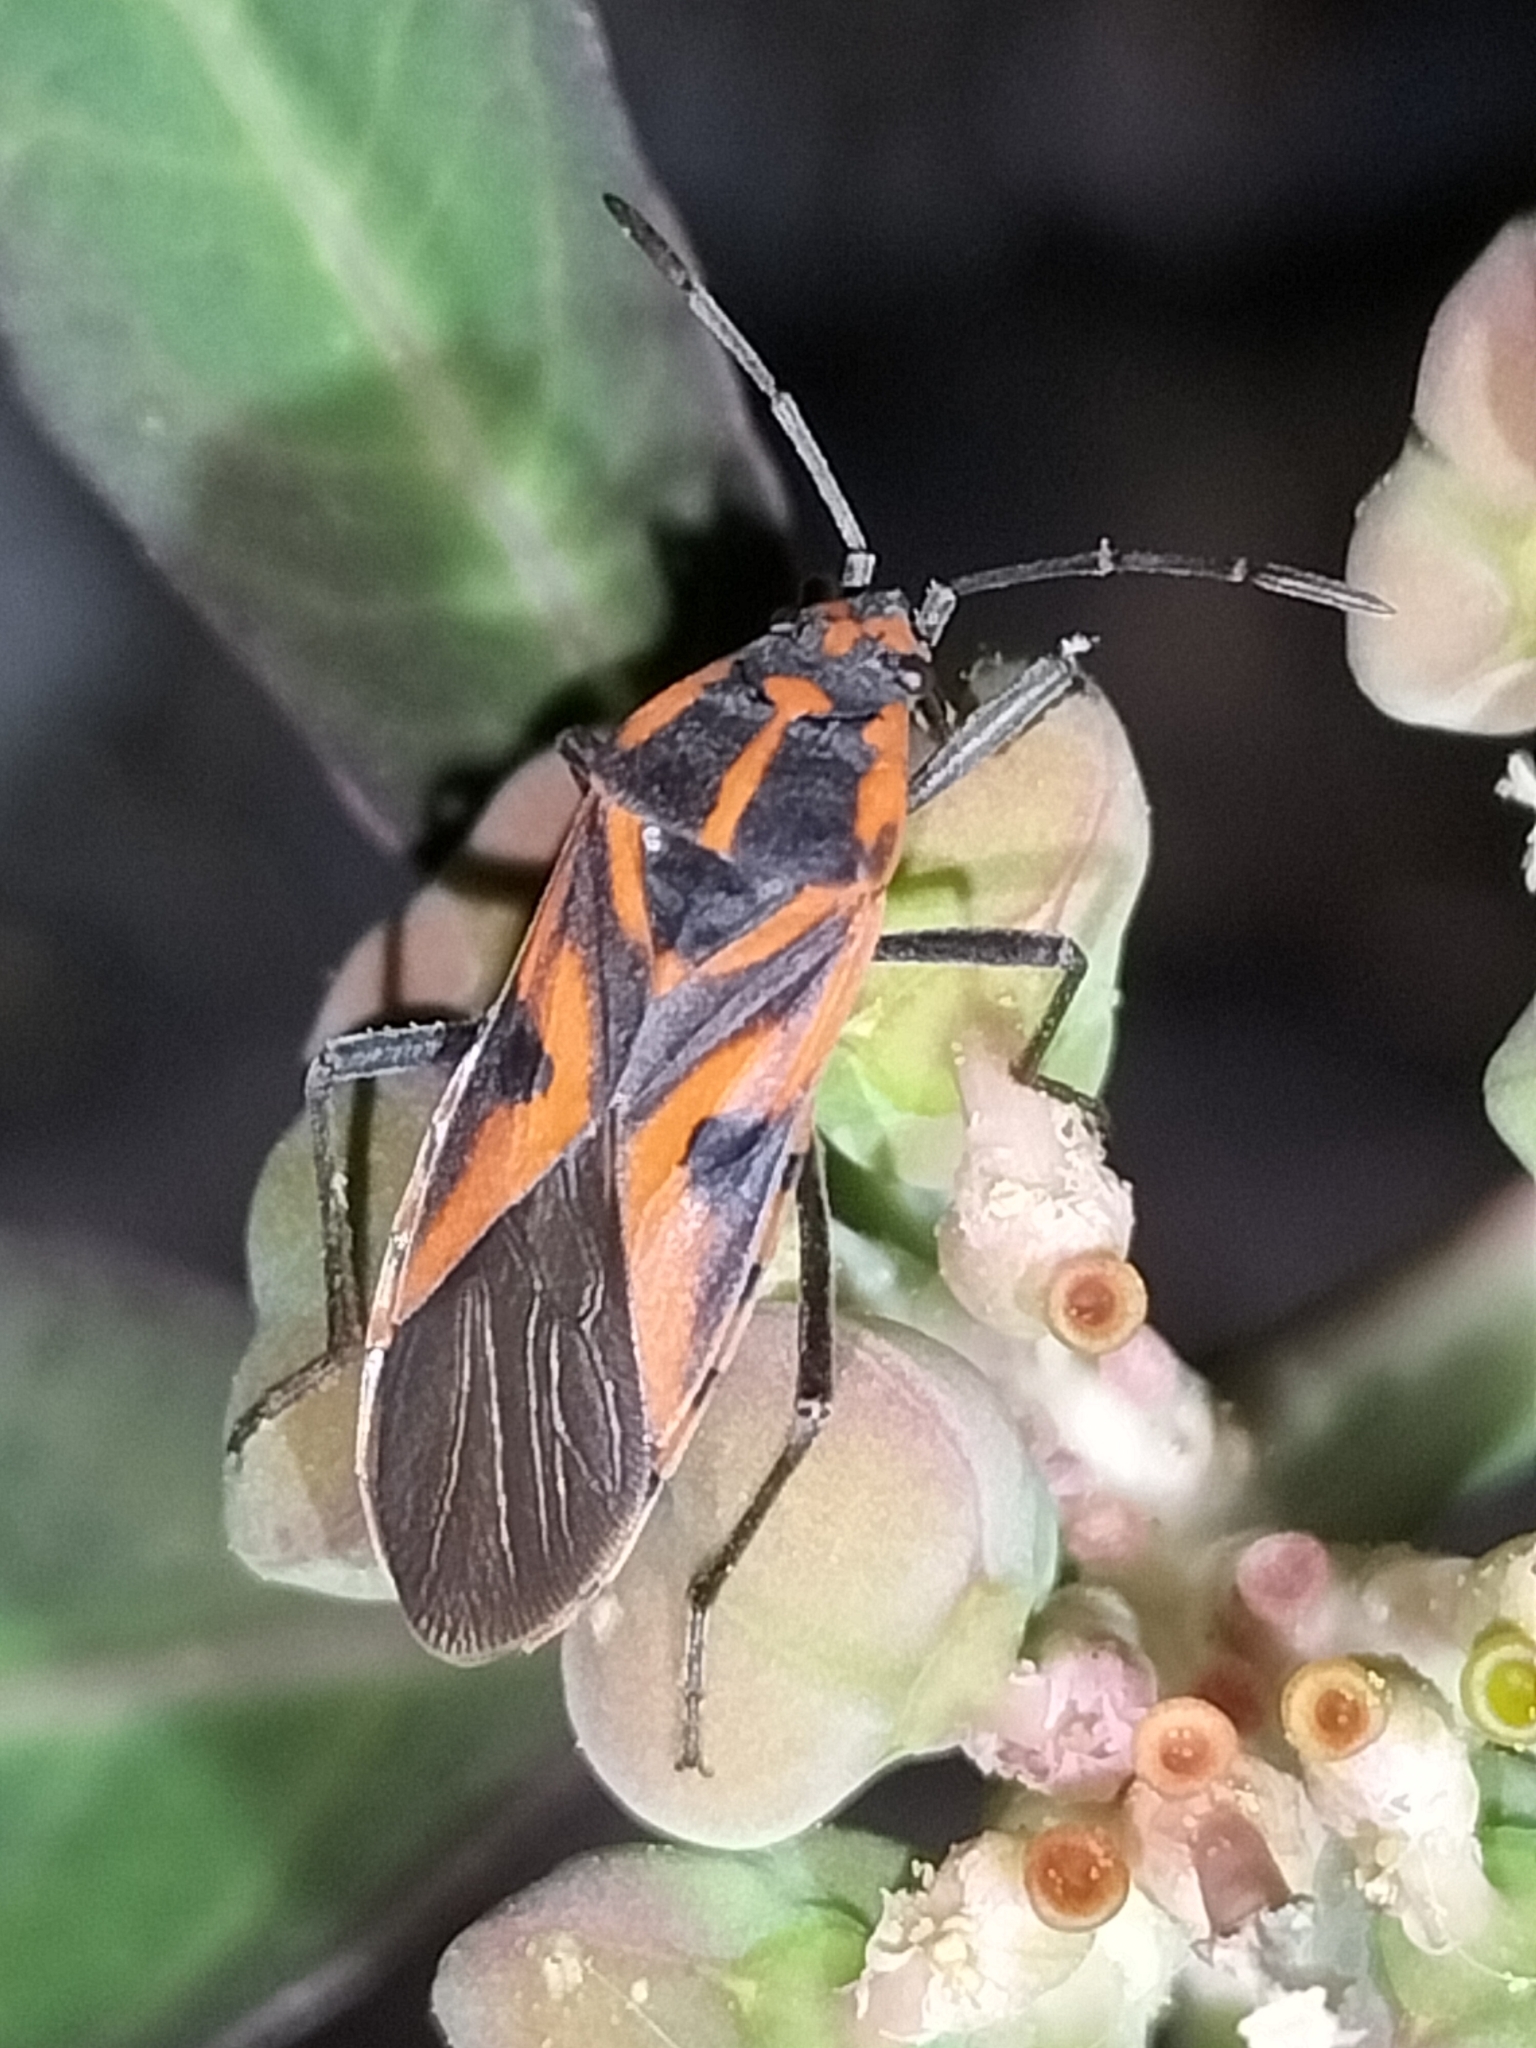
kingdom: Animalia
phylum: Arthropoda
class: Insecta
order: Hemiptera
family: Lygaeidae
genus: Spilostethus
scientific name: Spilostethus hospes
